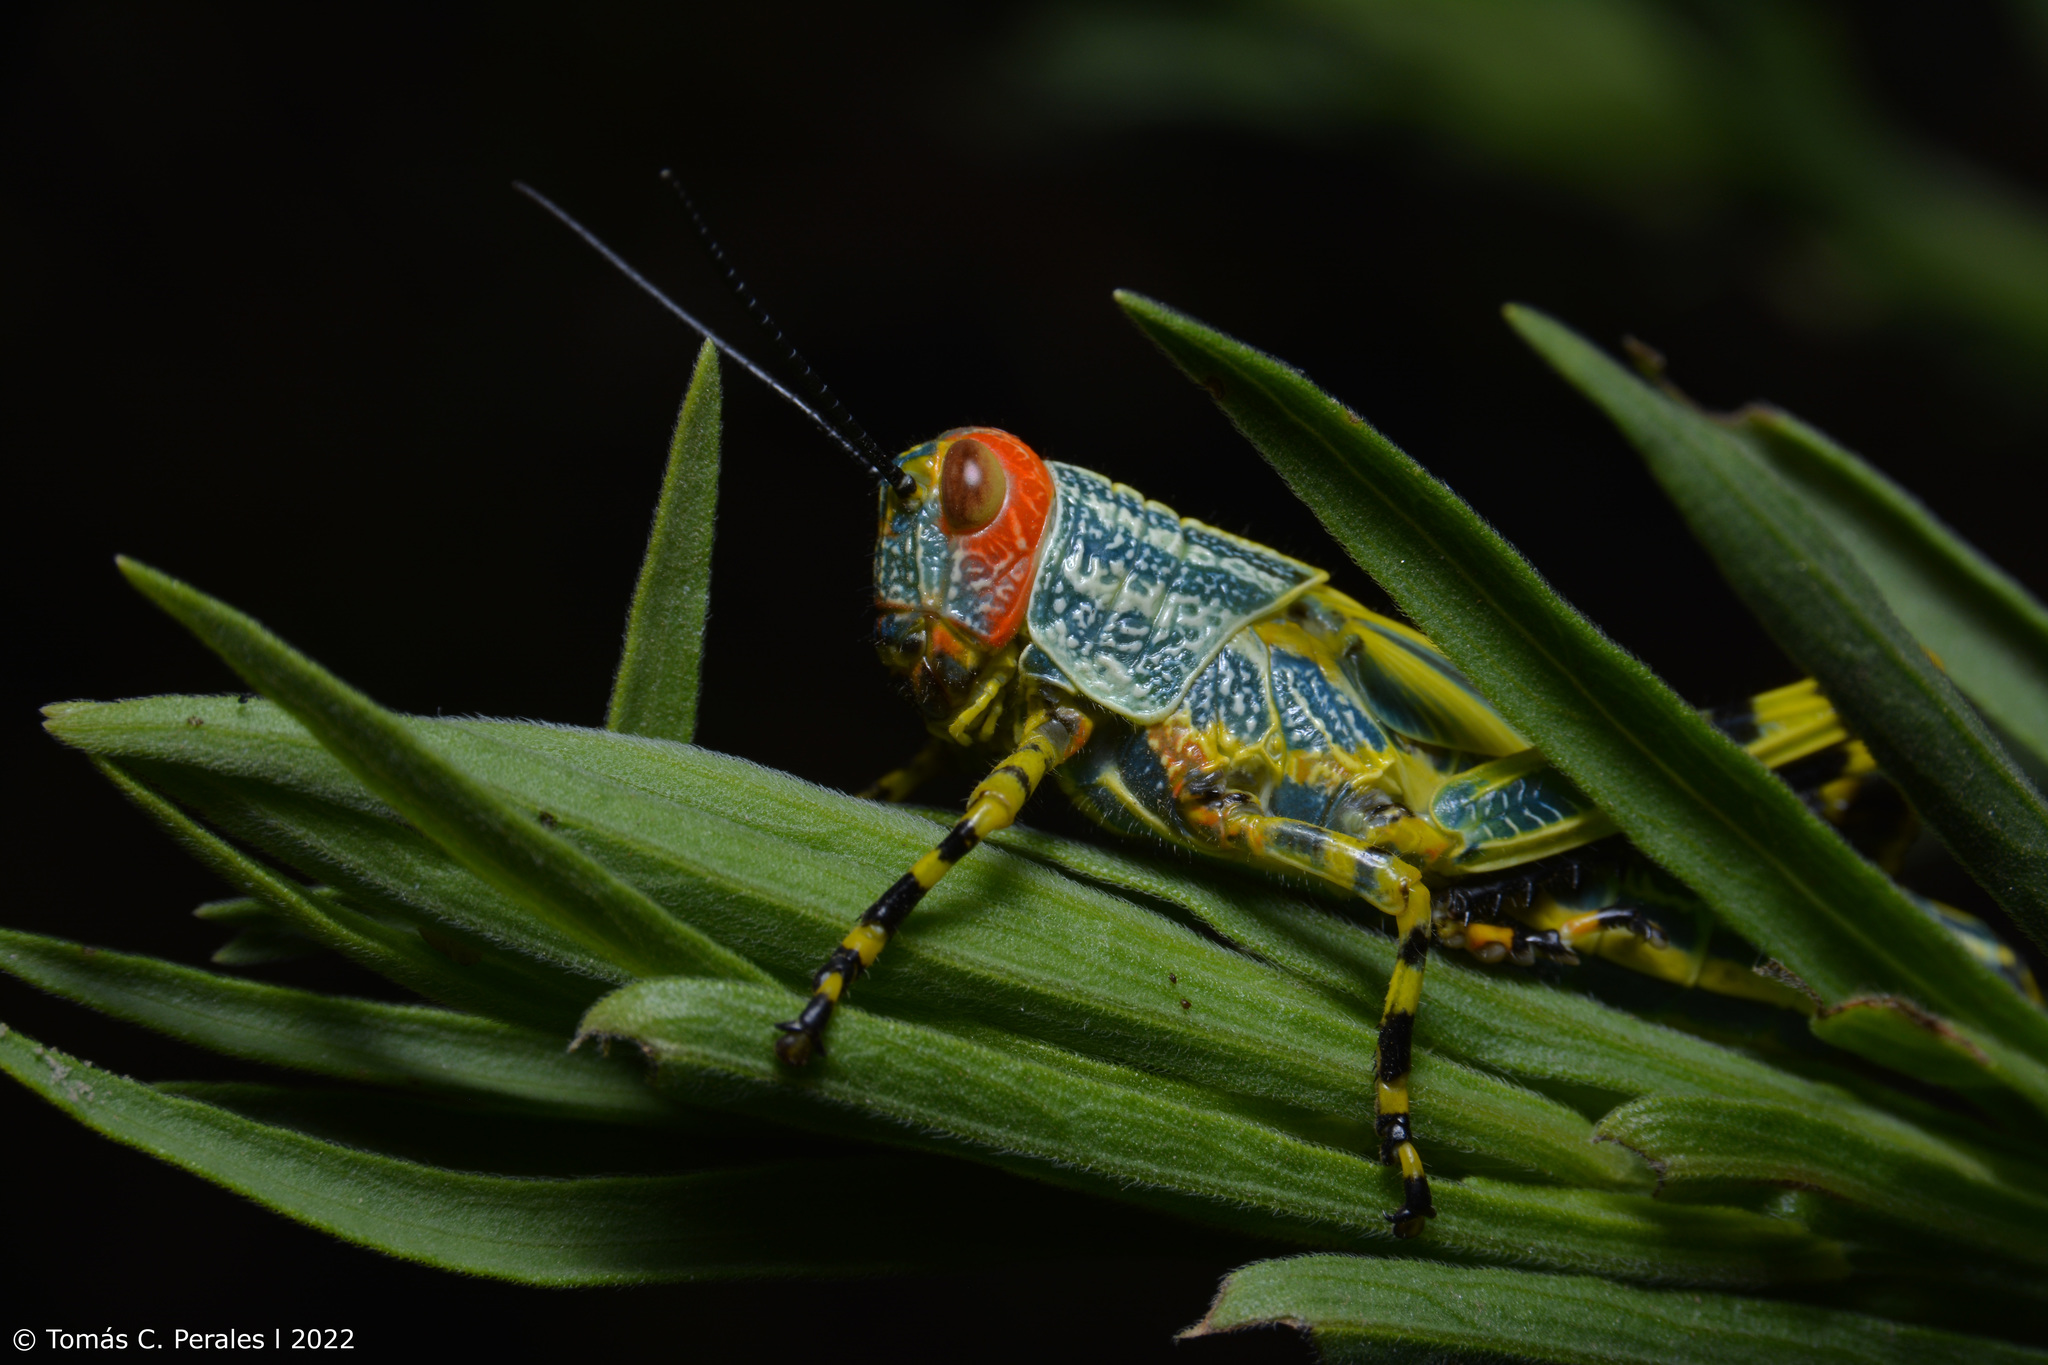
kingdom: Animalia
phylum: Arthropoda
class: Insecta
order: Orthoptera
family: Romaleidae
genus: Zoniopoda
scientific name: Zoniopoda tarsata
